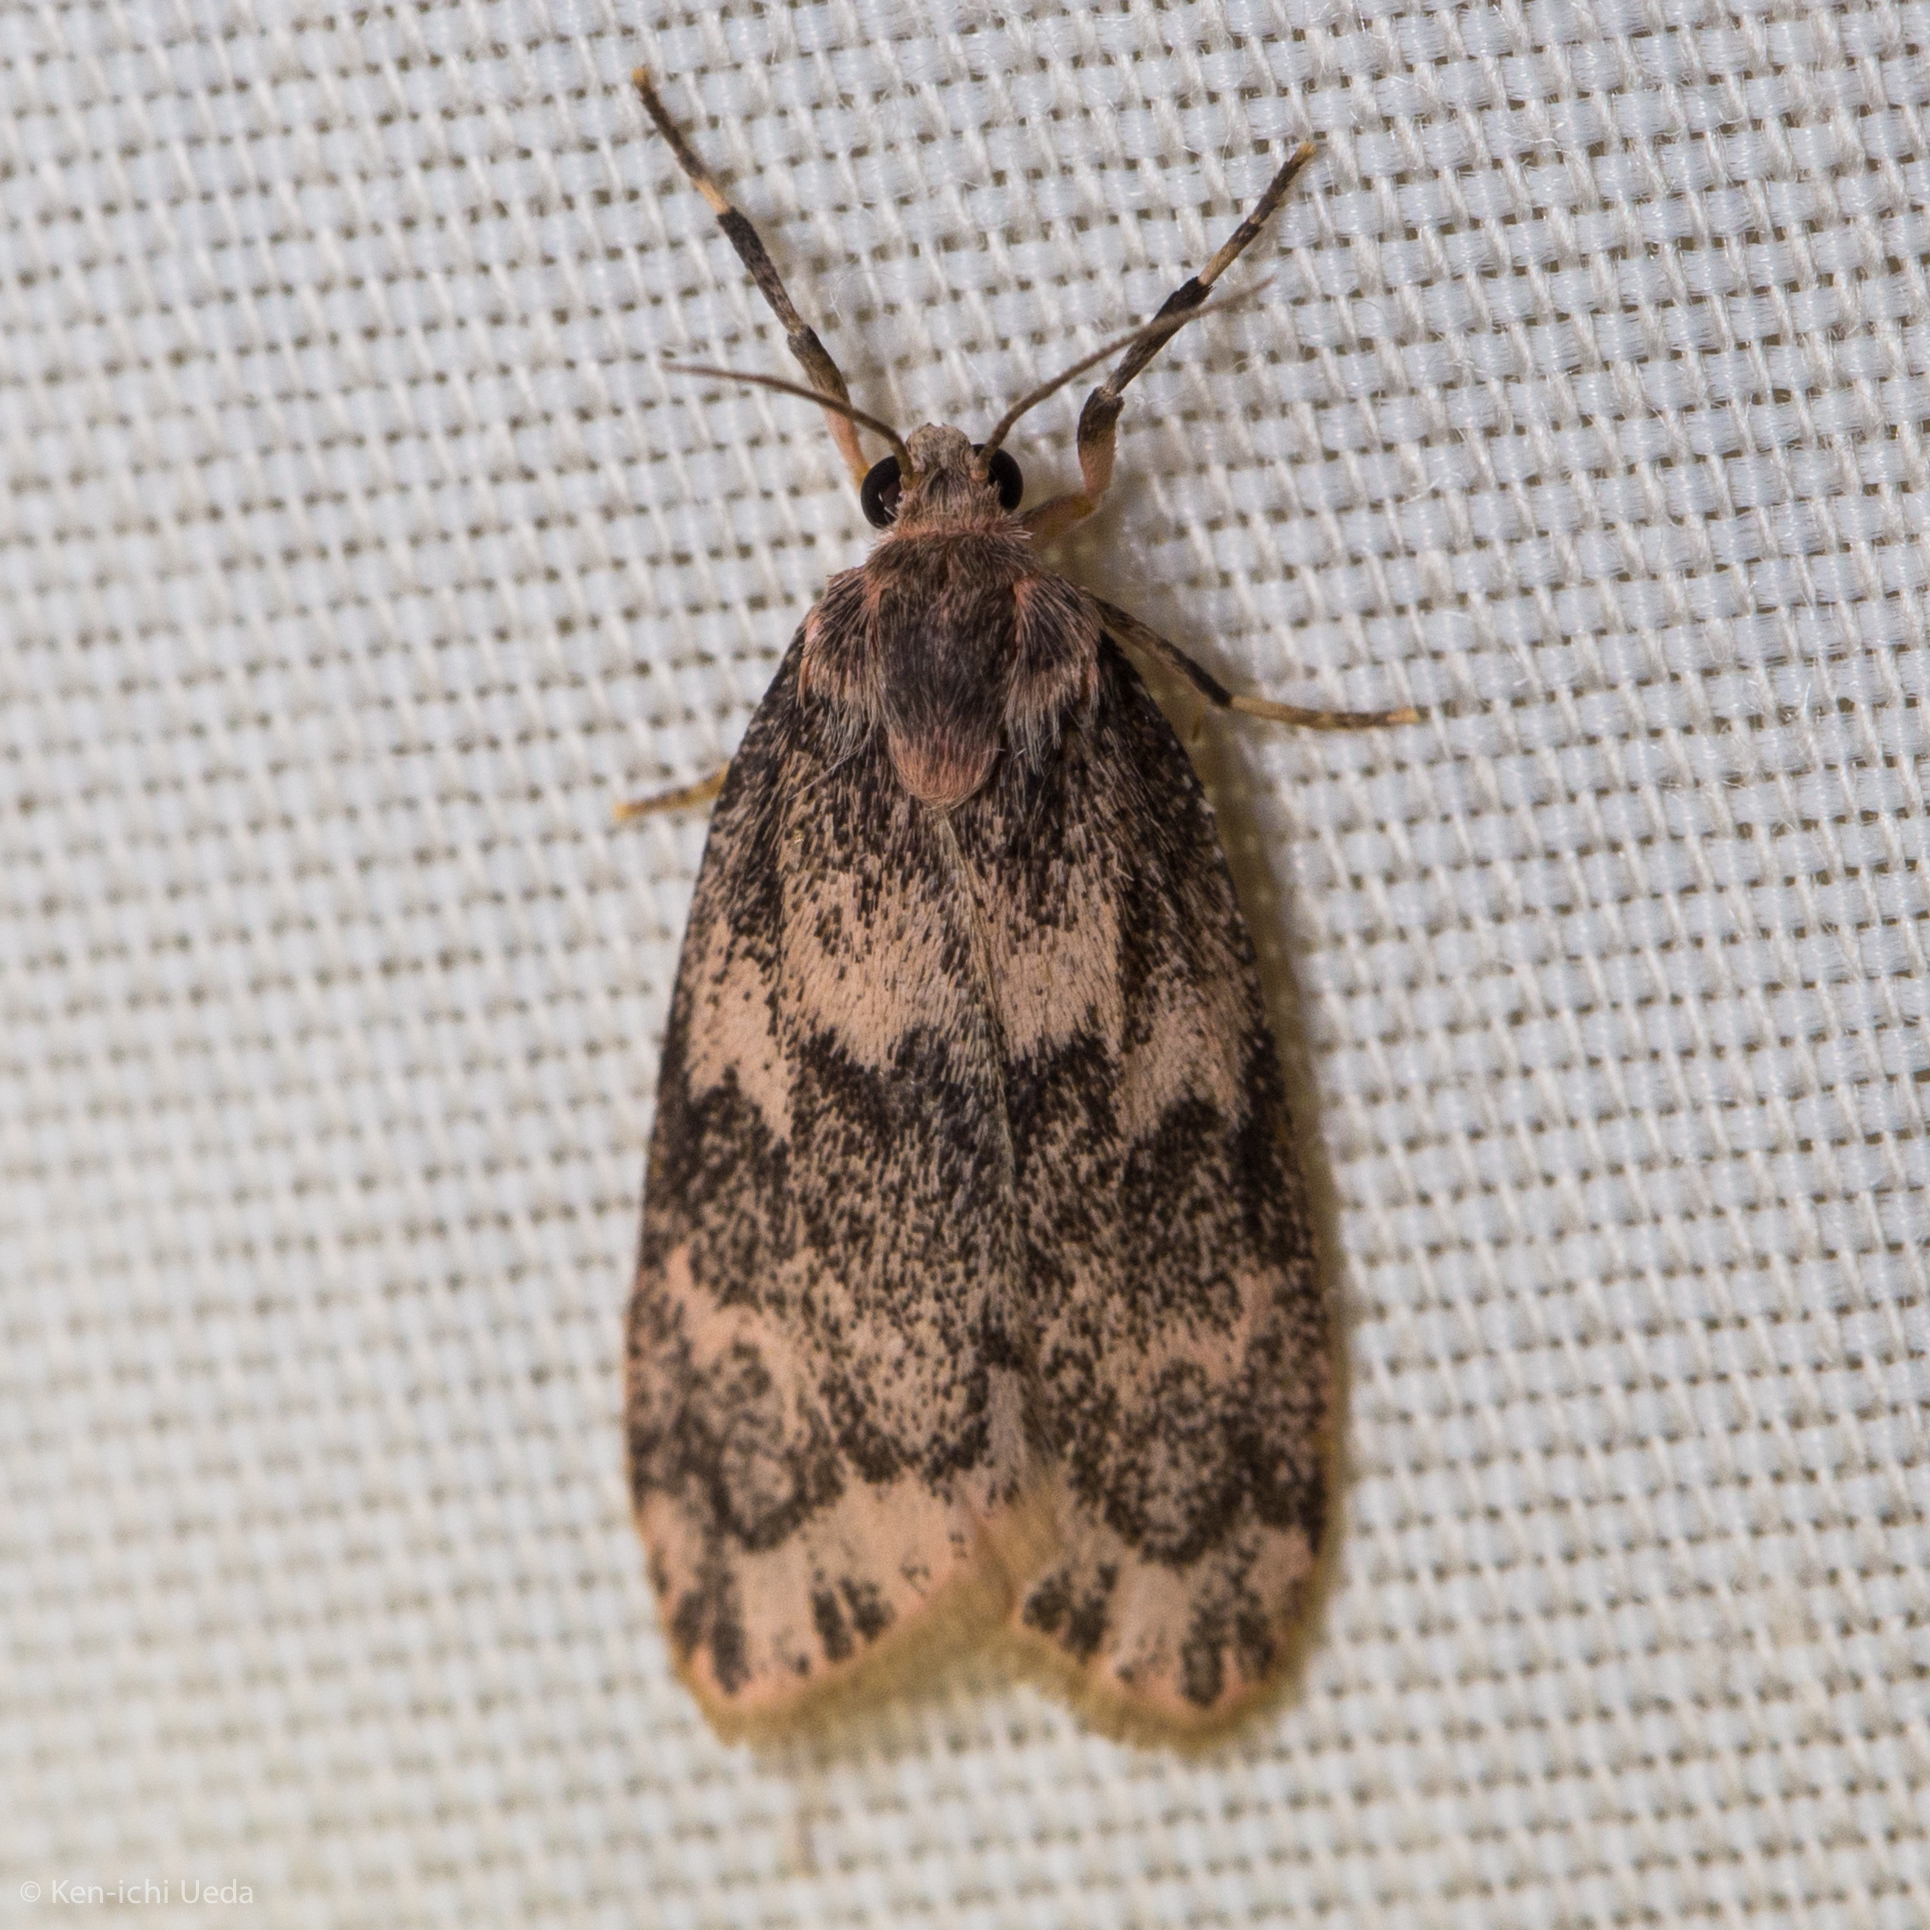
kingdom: Animalia
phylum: Arthropoda
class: Insecta
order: Lepidoptera
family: Erebidae
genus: Bruceia
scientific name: Bruceia hubbardi
